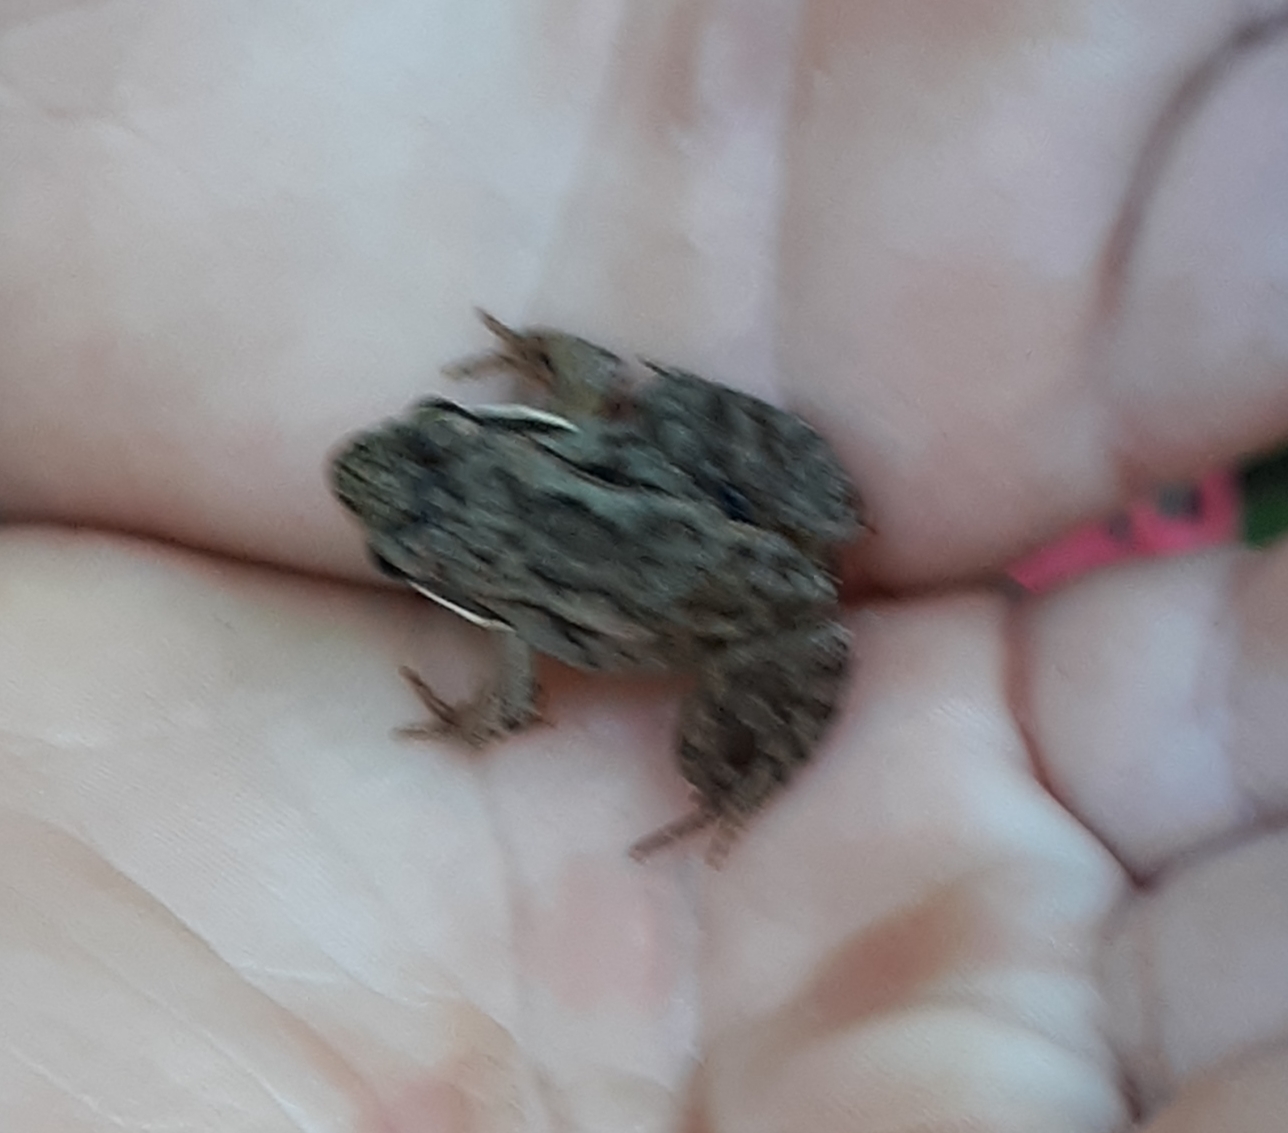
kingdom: Animalia
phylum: Chordata
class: Amphibia
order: Anura
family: Ranidae
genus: Lithobates
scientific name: Lithobates sylvaticus
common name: Wood frog
